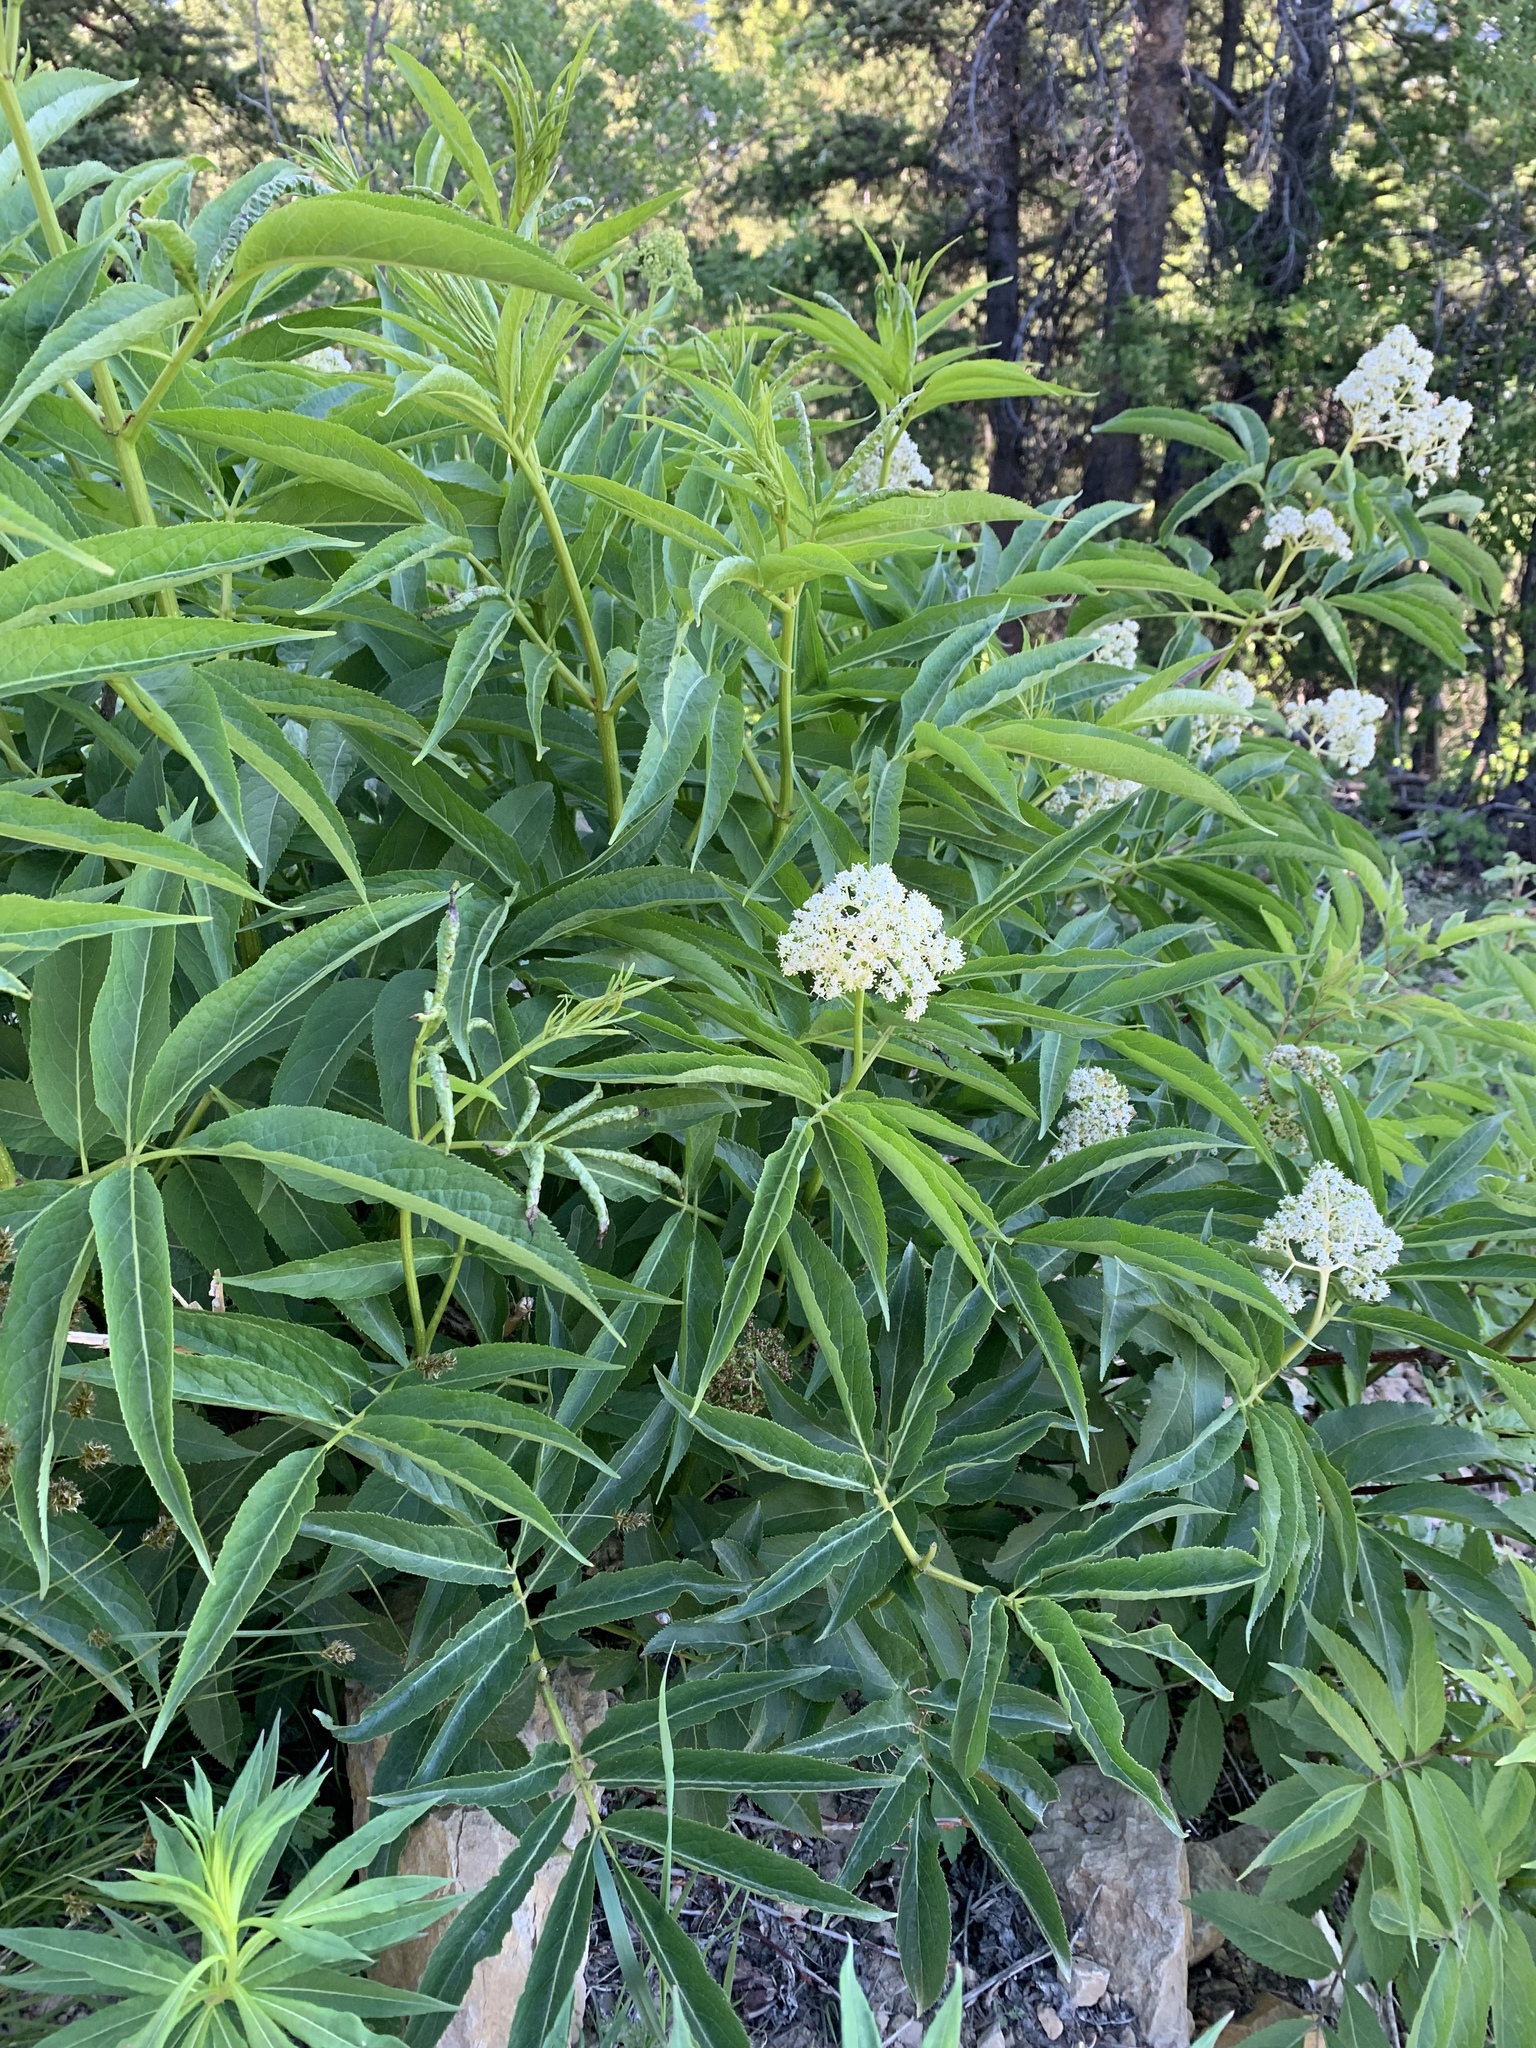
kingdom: Plantae
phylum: Tracheophyta
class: Magnoliopsida
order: Dipsacales
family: Viburnaceae
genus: Sambucus
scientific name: Sambucus racemosa
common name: Red-berried elder
